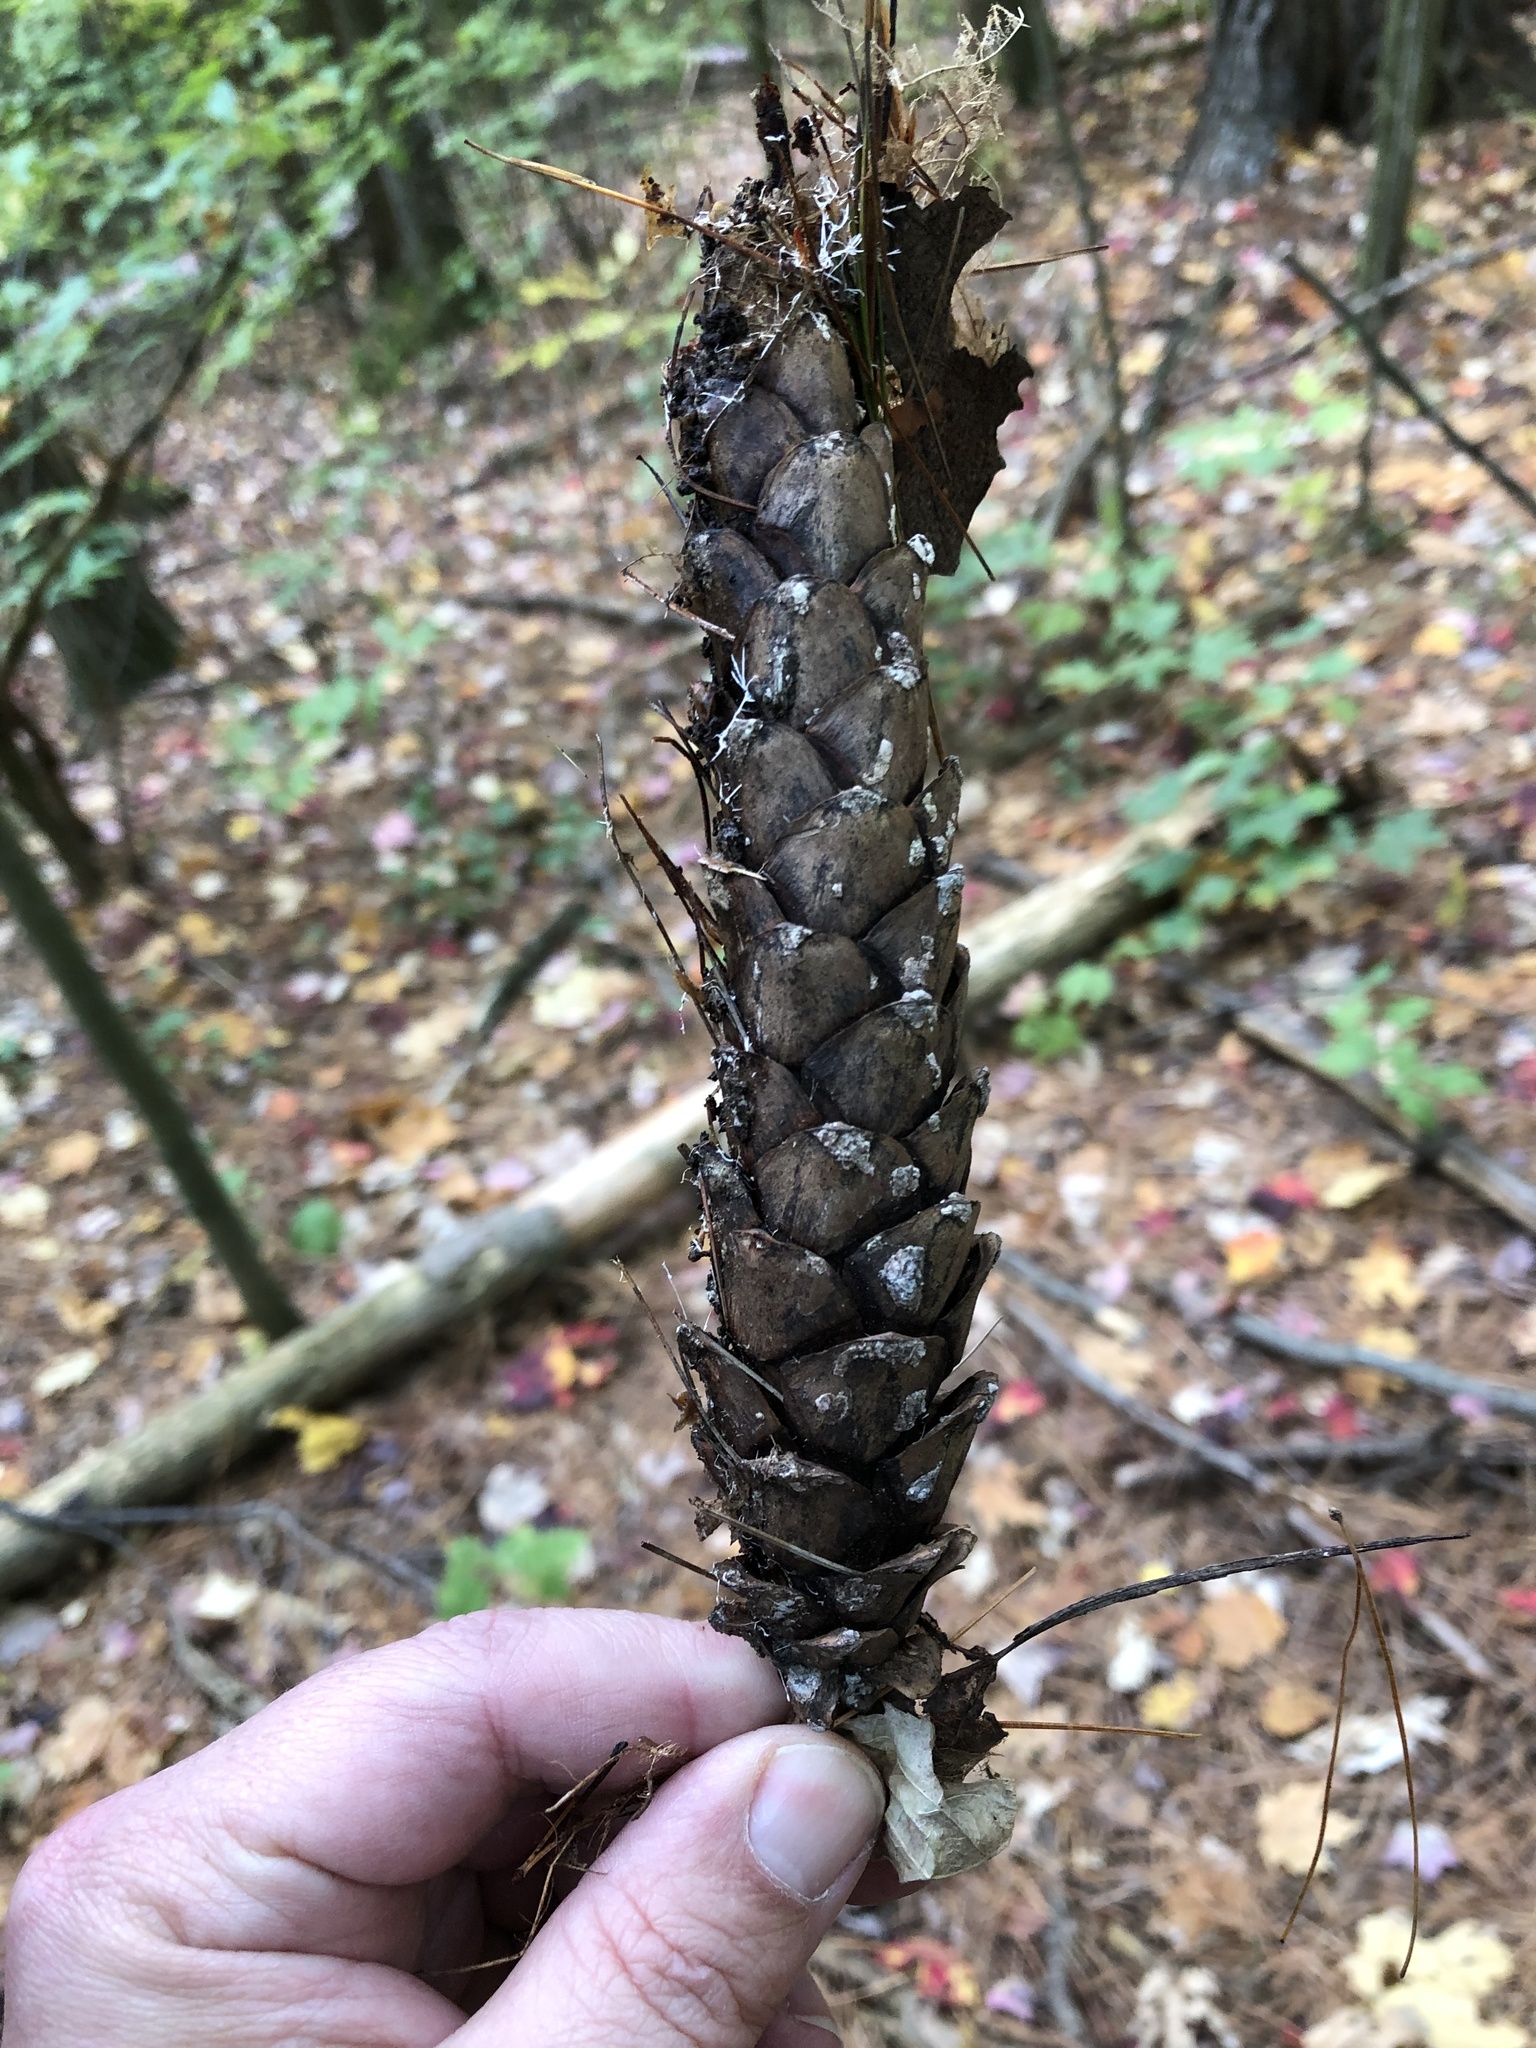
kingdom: Plantae
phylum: Tracheophyta
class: Pinopsida
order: Pinales
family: Pinaceae
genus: Pinus
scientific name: Pinus strobus
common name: Weymouth pine
